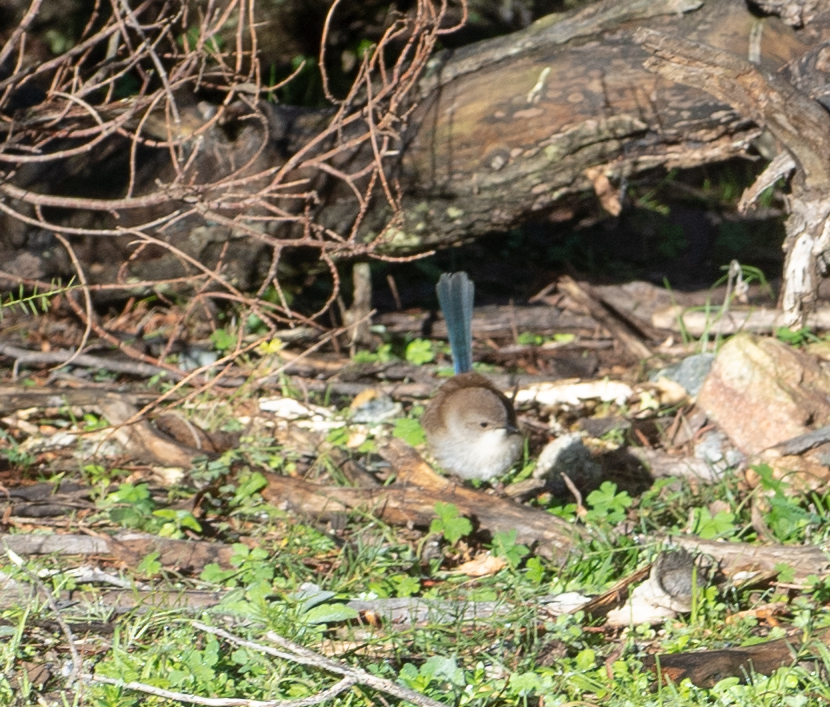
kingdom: Animalia
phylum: Chordata
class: Aves
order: Passeriformes
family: Maluridae
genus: Malurus
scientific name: Malurus cyaneus
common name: Superb fairywren
